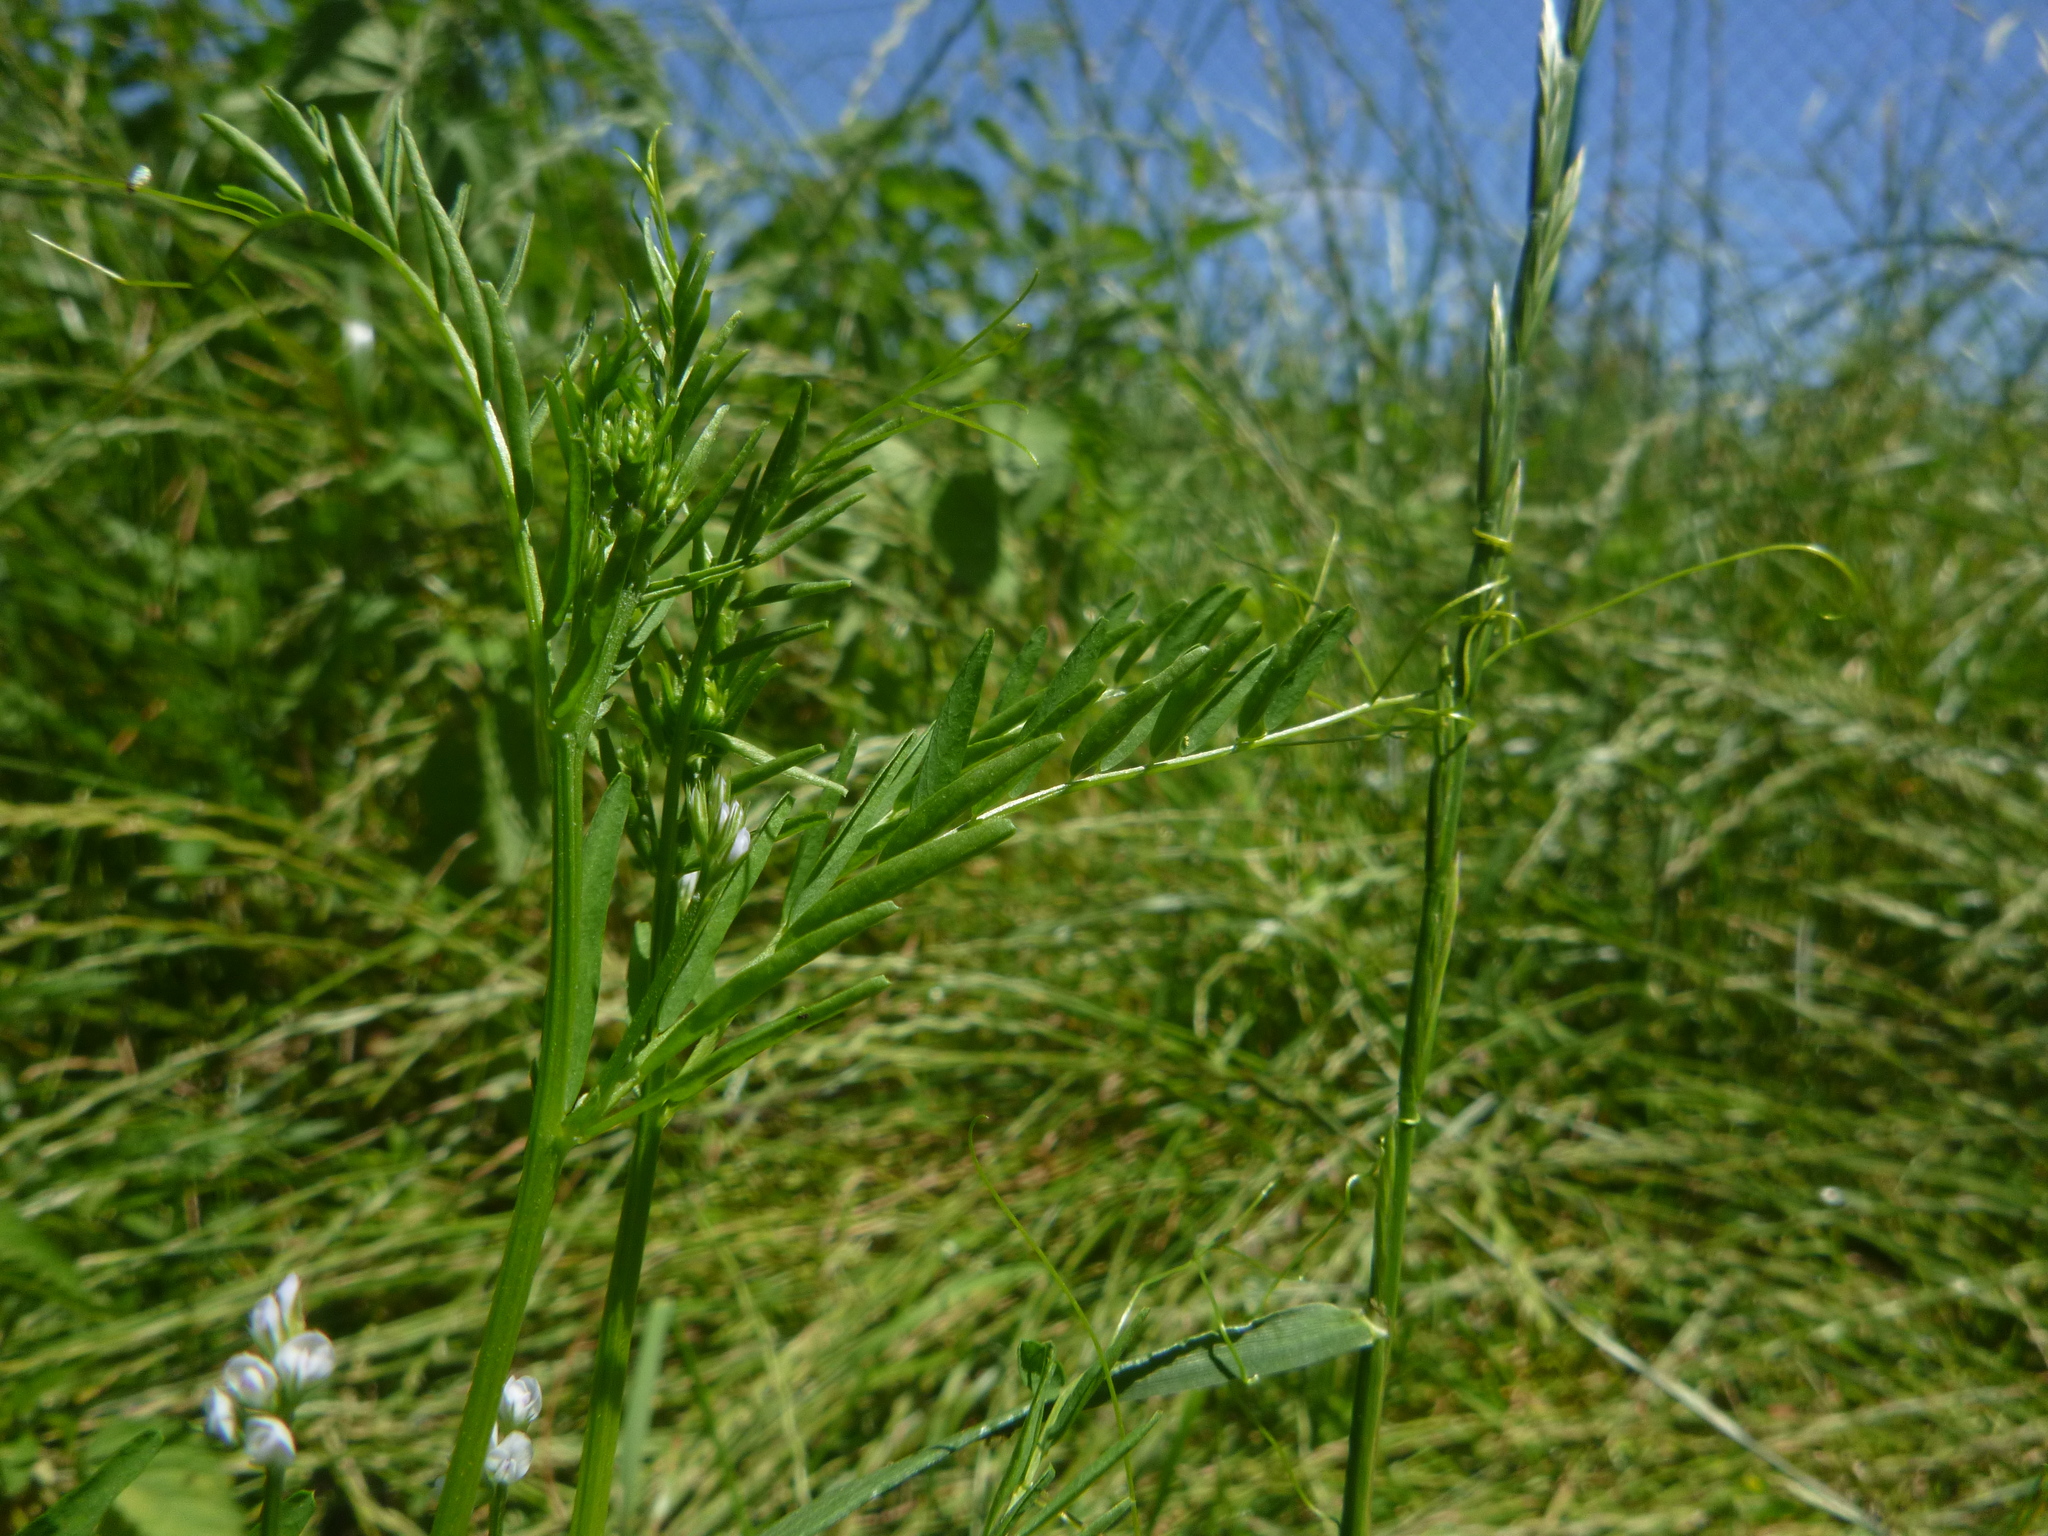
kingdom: Plantae
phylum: Tracheophyta
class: Magnoliopsida
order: Fabales
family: Fabaceae
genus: Vicia
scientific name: Vicia hirsuta
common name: Tiny vetch
